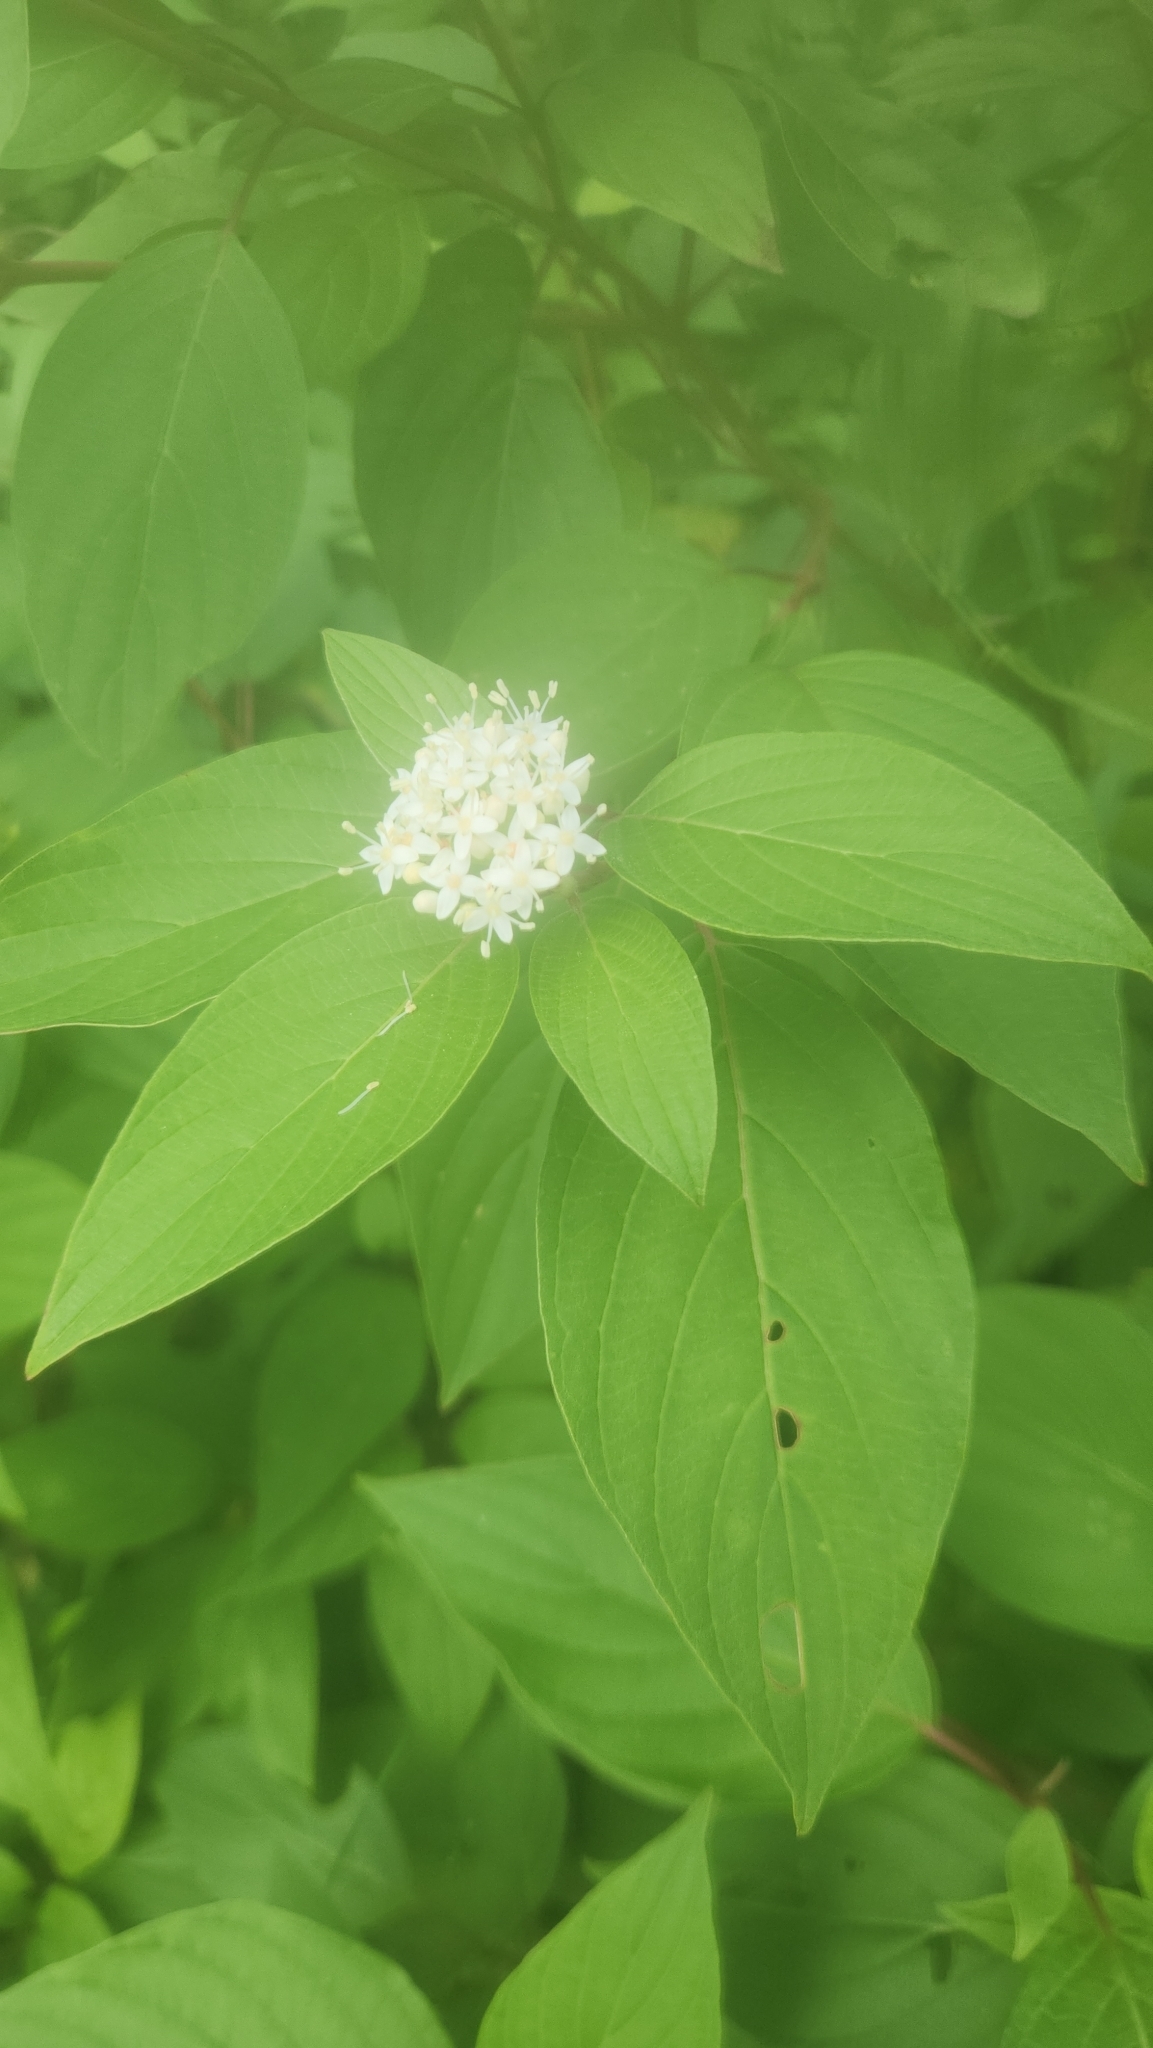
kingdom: Plantae
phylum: Tracheophyta
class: Magnoliopsida
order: Cornales
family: Cornaceae
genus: Cornus
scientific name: Cornus sericea
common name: Red-osier dogwood
